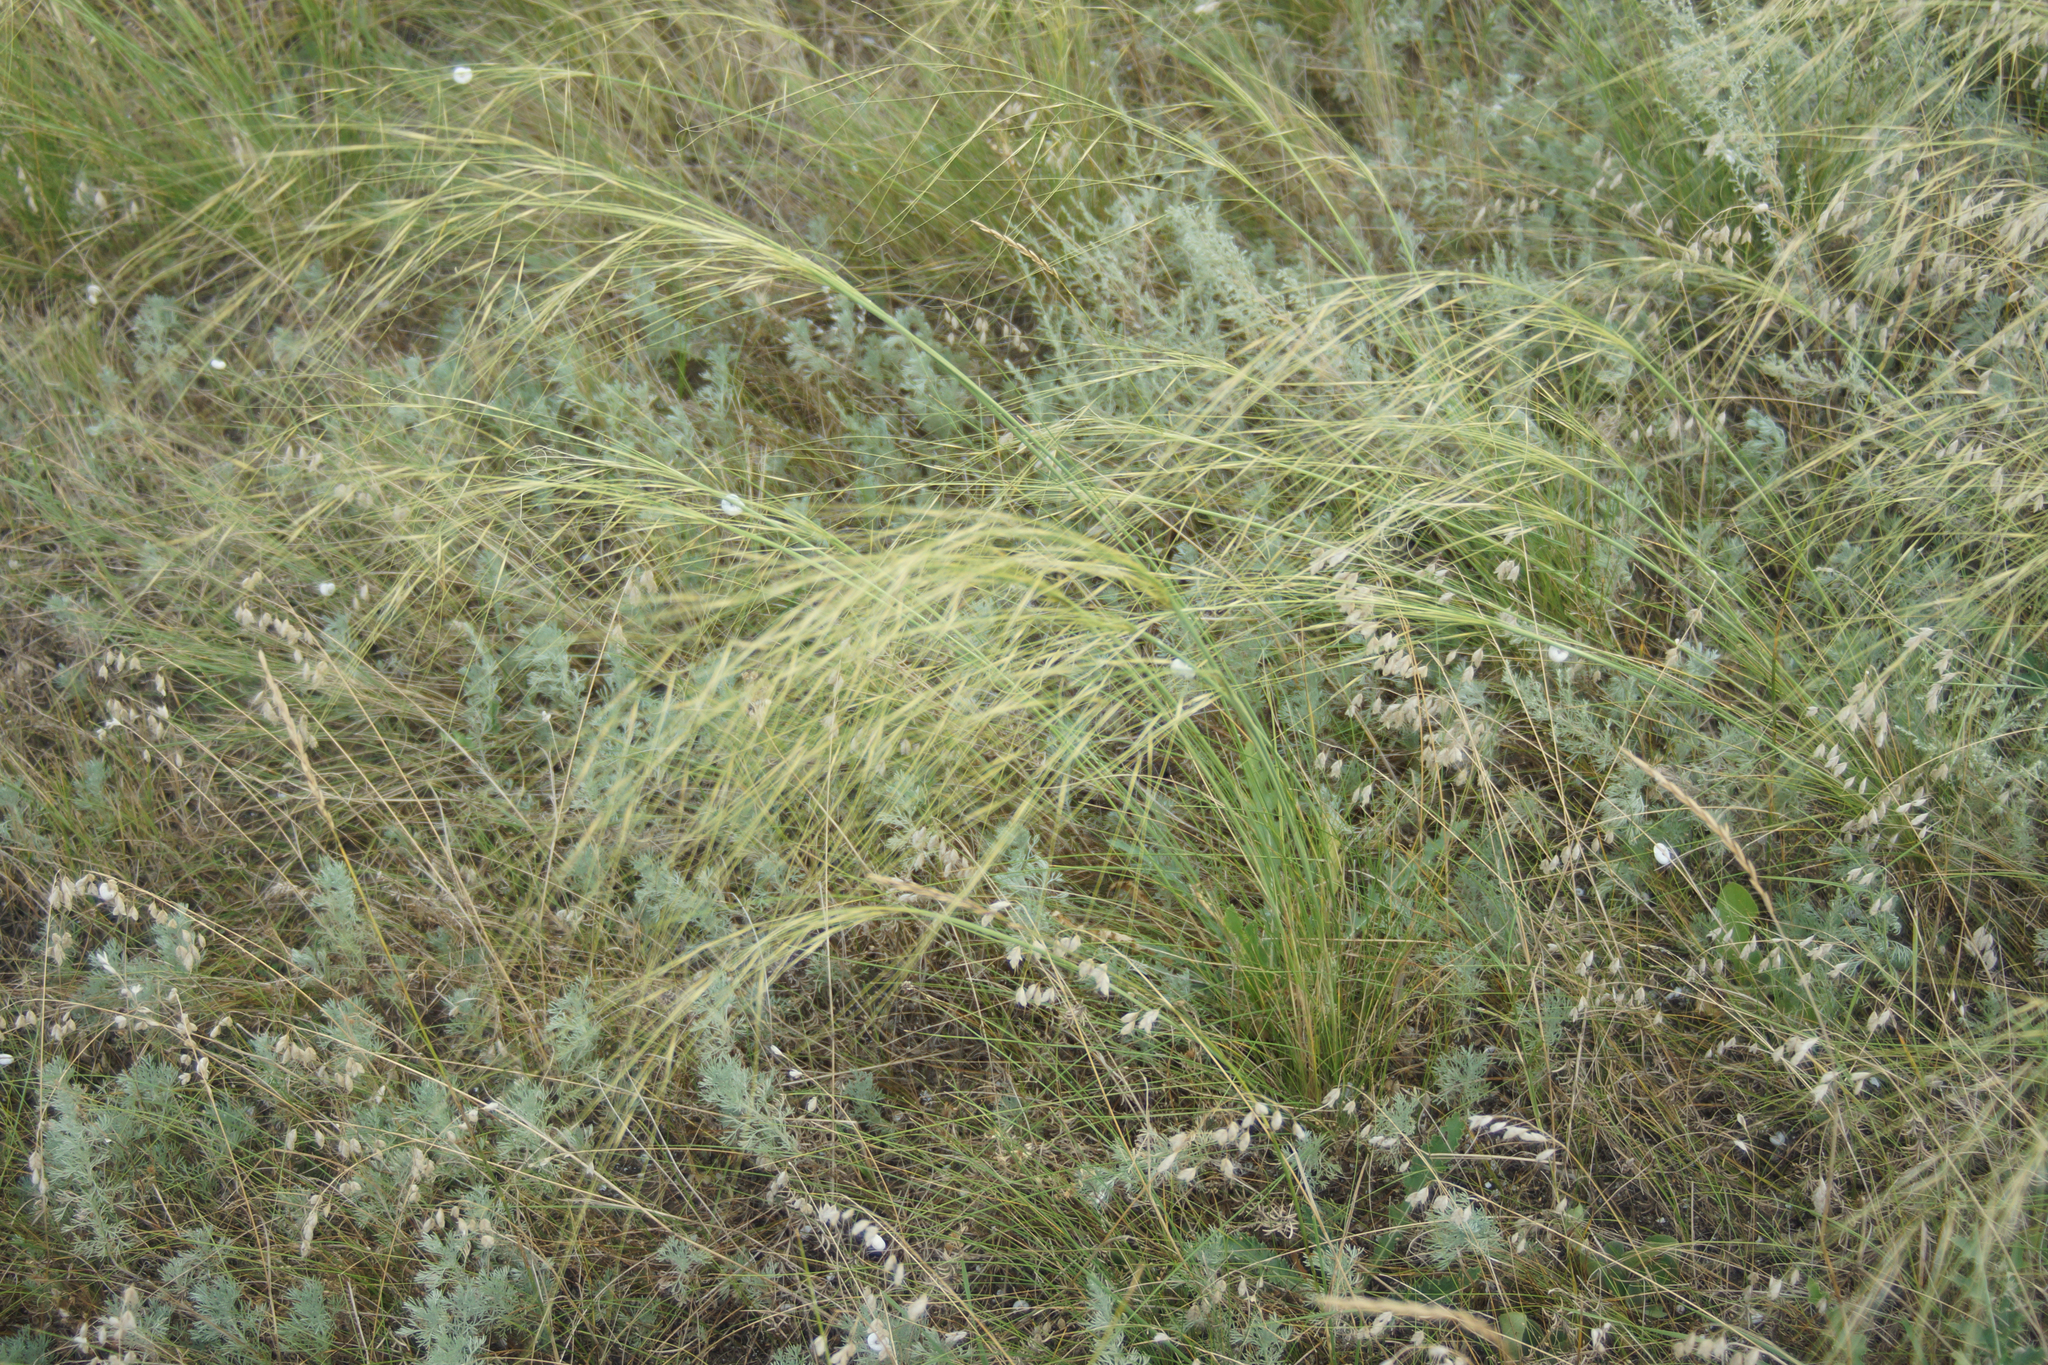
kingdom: Plantae
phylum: Tracheophyta
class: Liliopsida
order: Poales
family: Poaceae
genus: Stipa
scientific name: Stipa capillata
